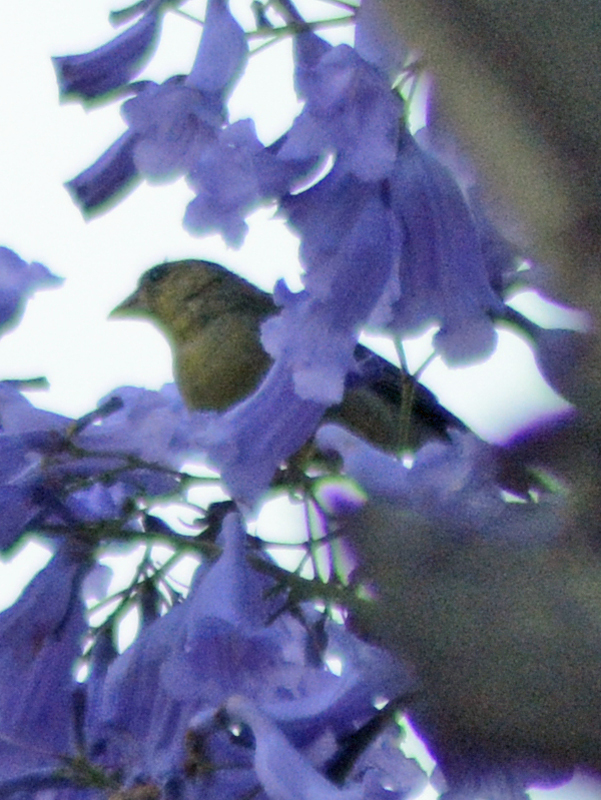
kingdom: Animalia
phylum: Chordata
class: Aves
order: Passeriformes
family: Fringillidae
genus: Spinus
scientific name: Spinus psaltria
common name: Lesser goldfinch
